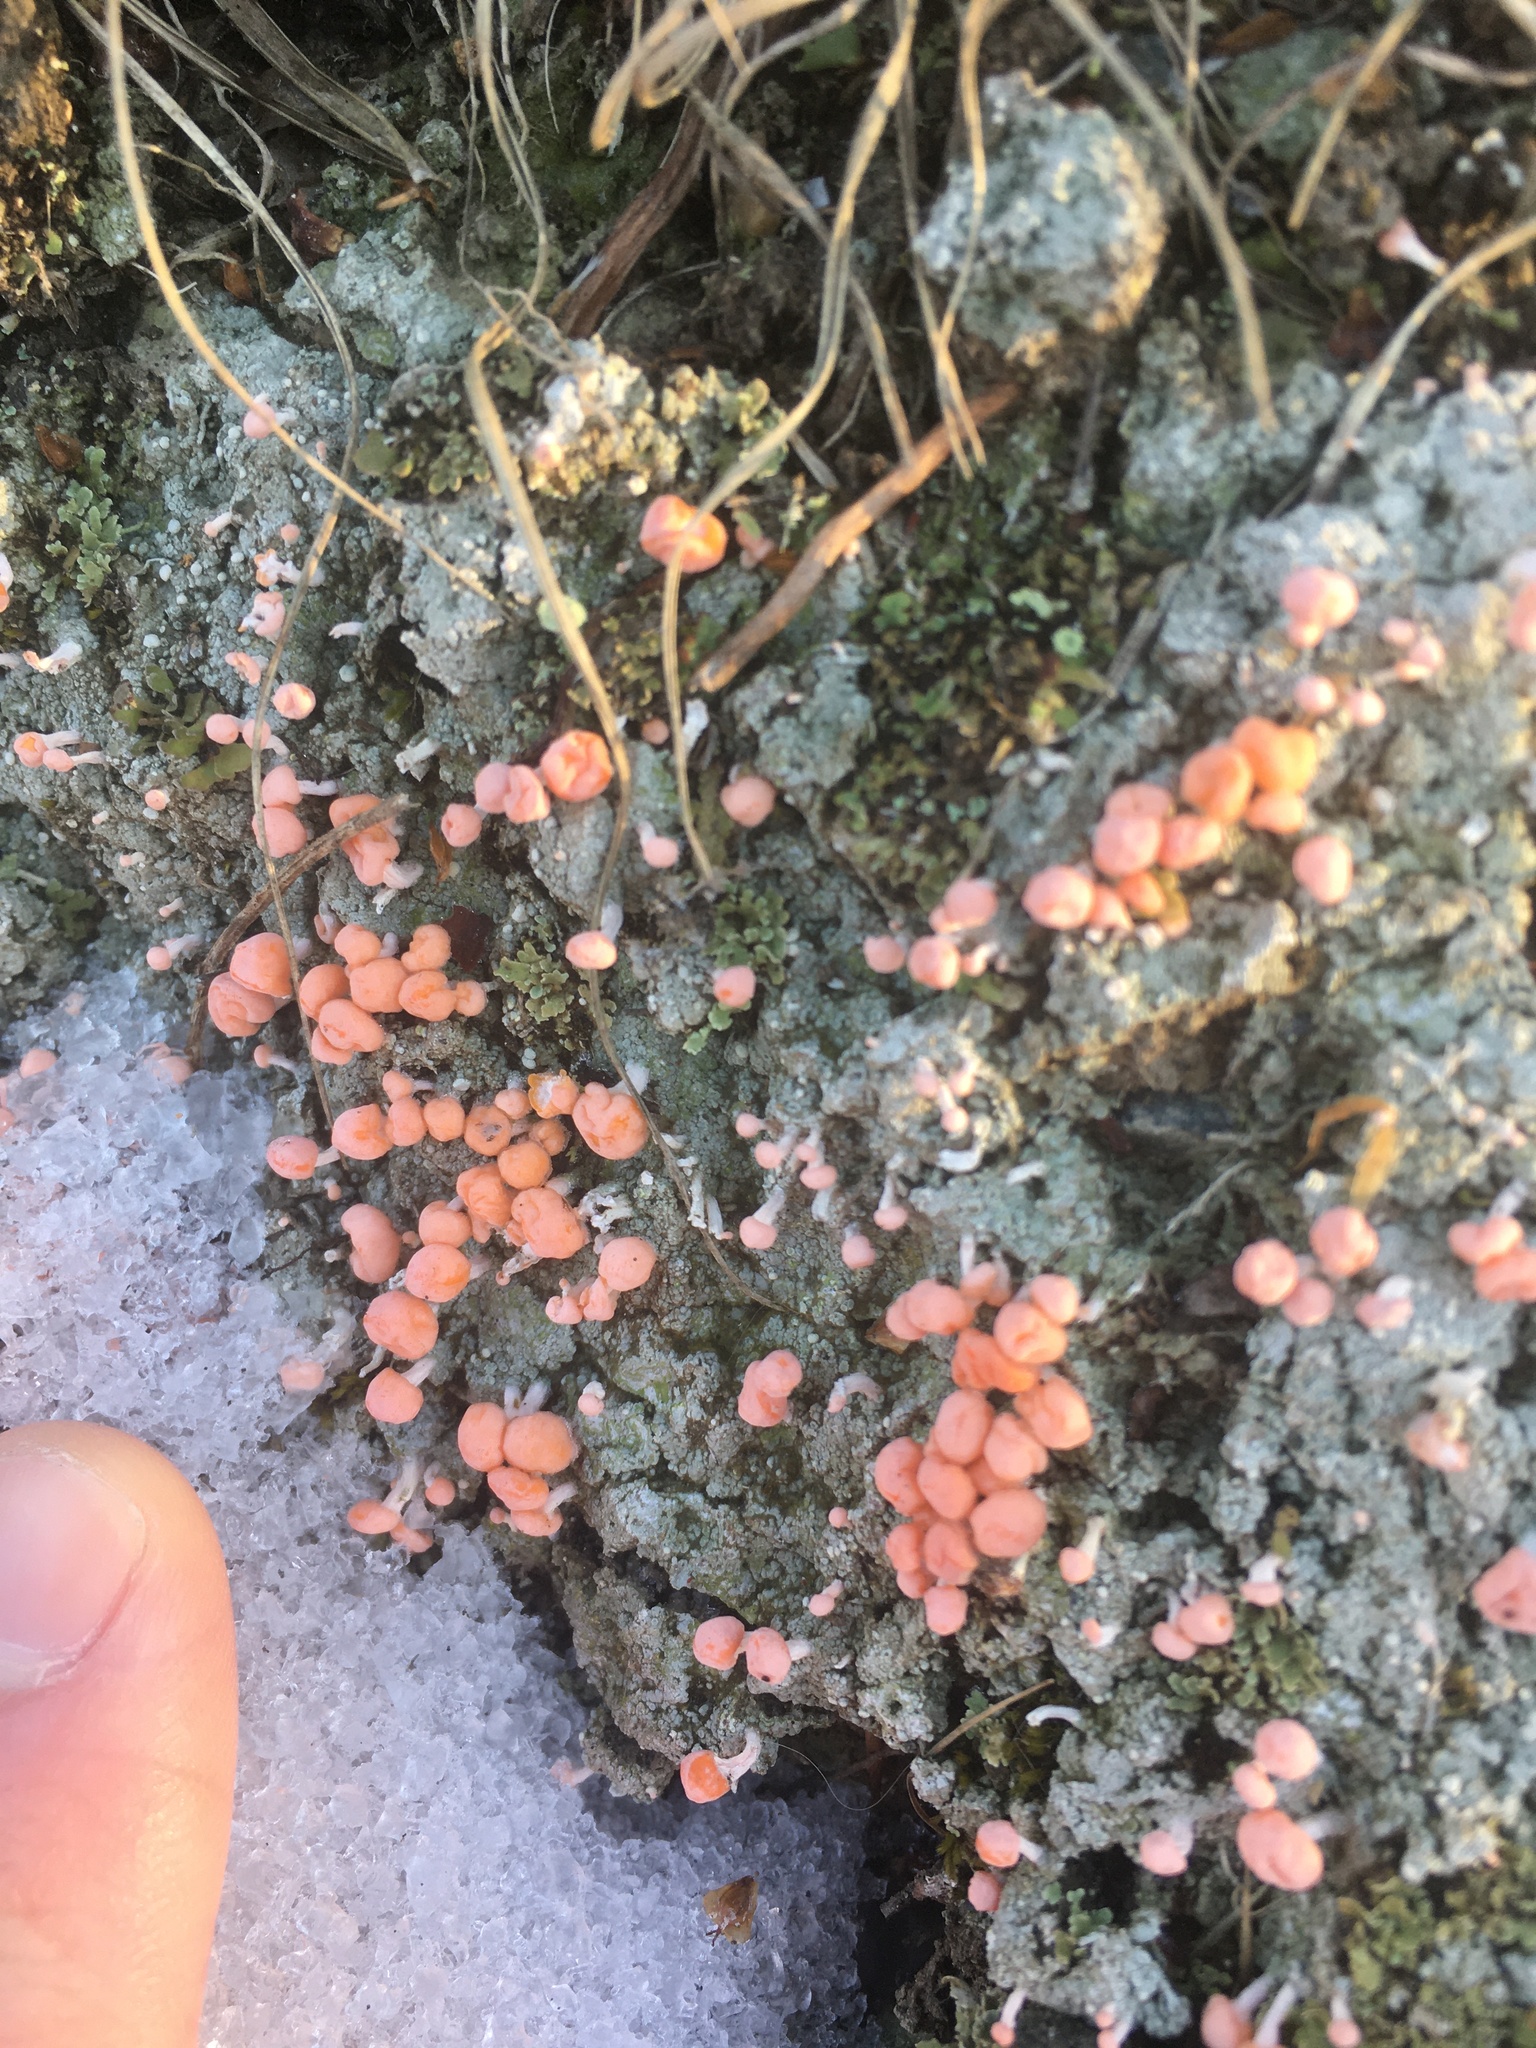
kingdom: Fungi
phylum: Ascomycota
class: Lecanoromycetes
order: Pertusariales
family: Icmadophilaceae
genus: Dibaeis
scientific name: Dibaeis baeomyces
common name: Pink earth lichen
